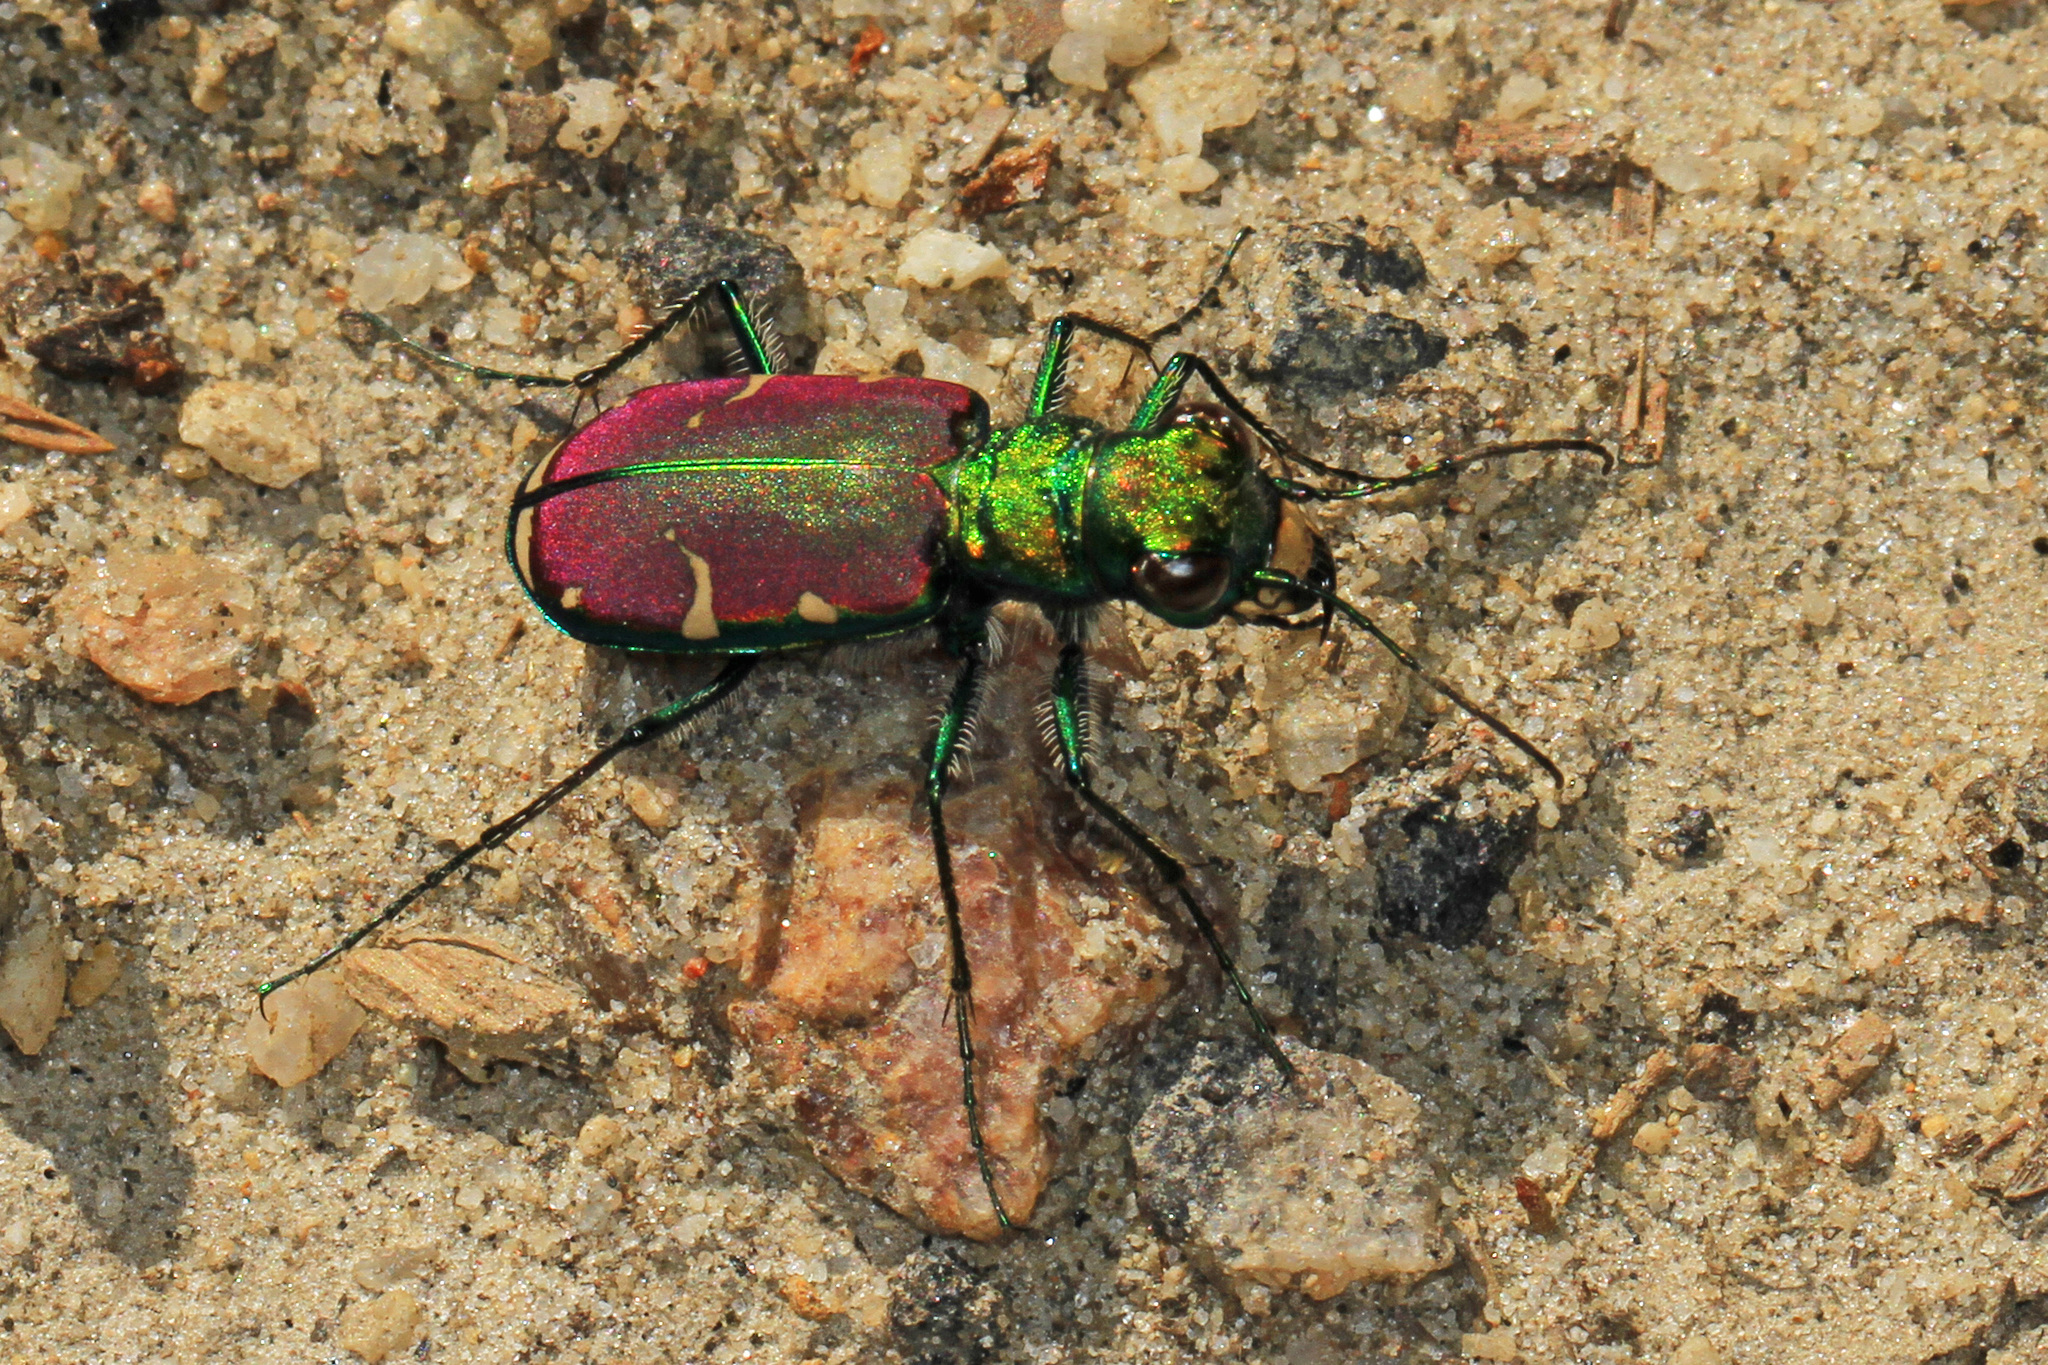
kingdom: Animalia
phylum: Arthropoda
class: Insecta
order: Coleoptera
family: Carabidae
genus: Cicindela
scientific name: Cicindela splendida
